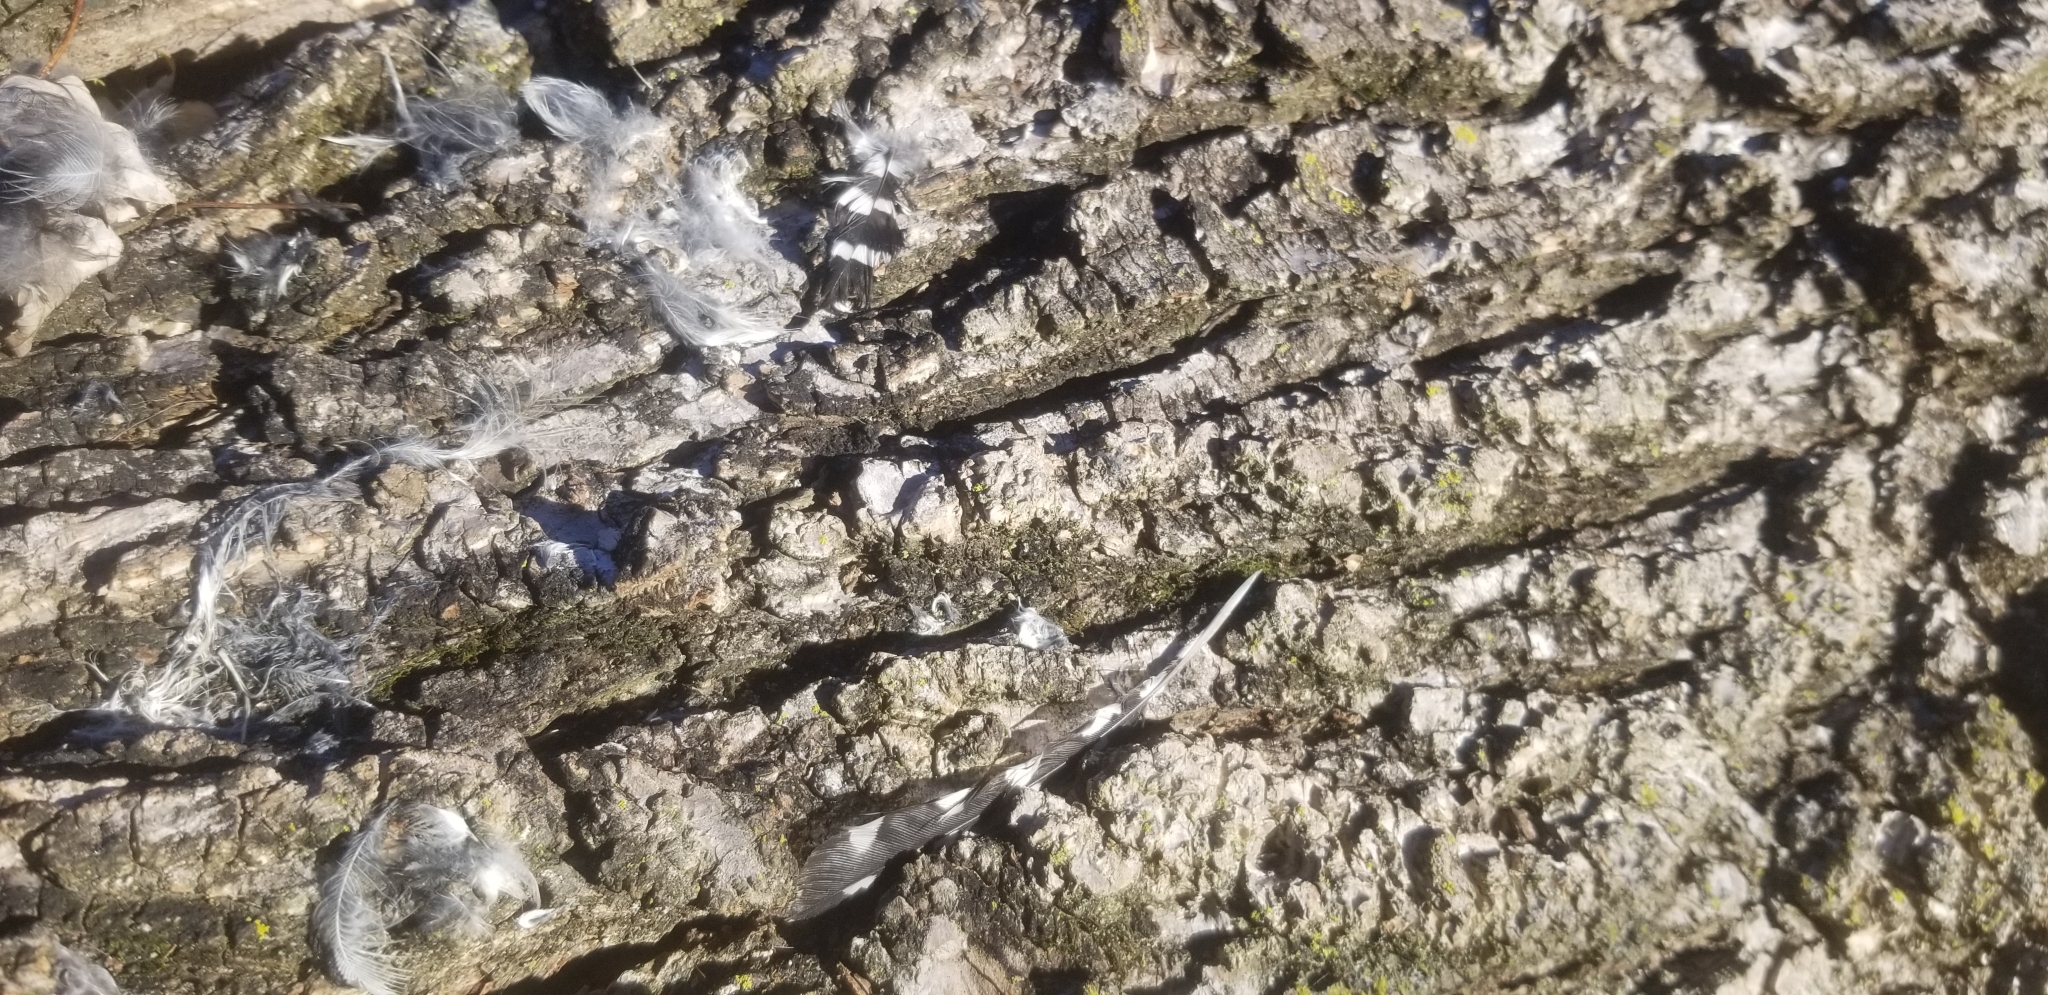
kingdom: Animalia
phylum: Chordata
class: Aves
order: Piciformes
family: Picidae
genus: Leuconotopicus
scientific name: Leuconotopicus villosus
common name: Hairy woodpecker
